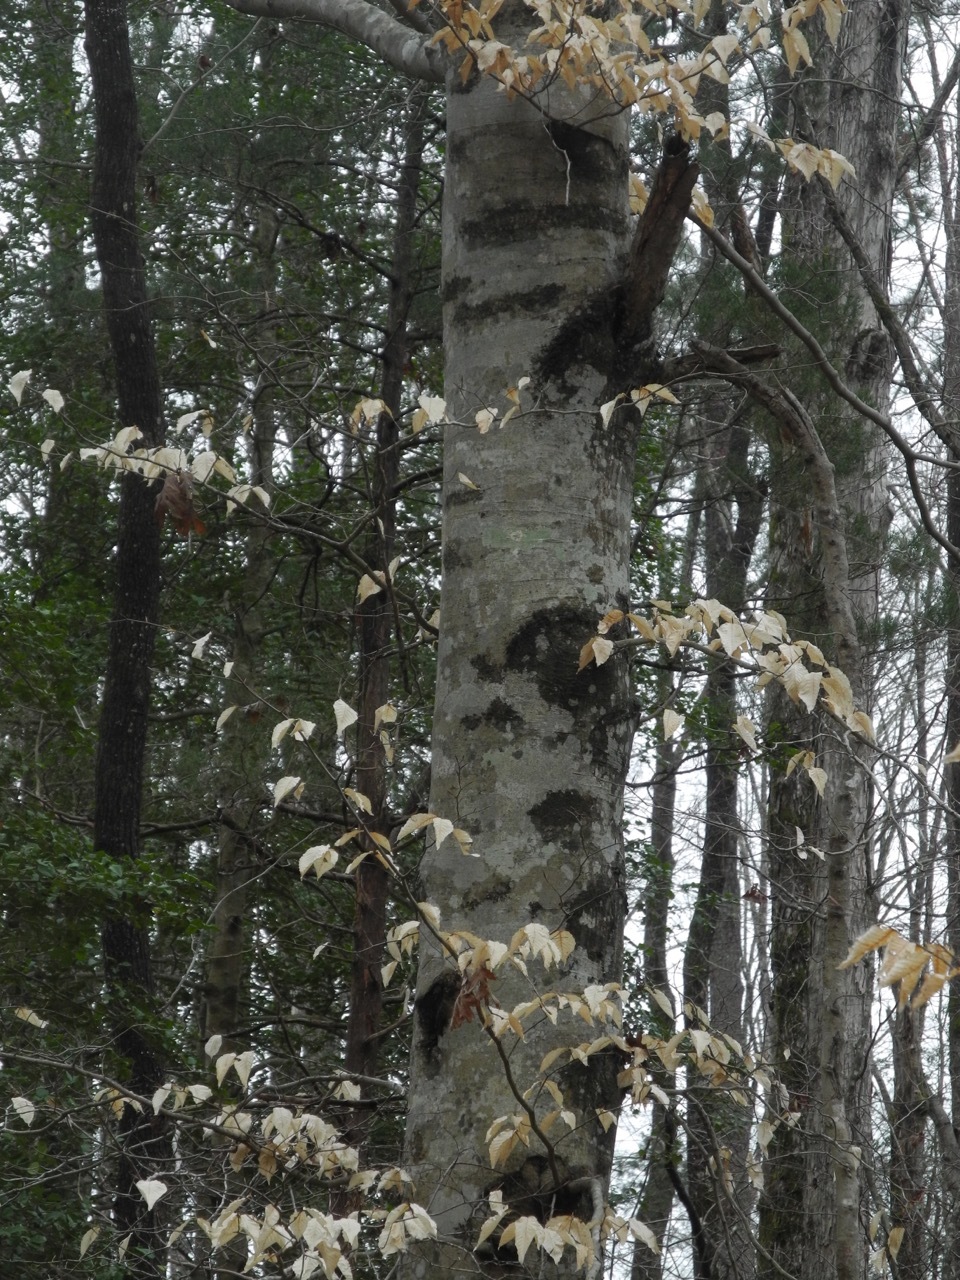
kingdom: Plantae
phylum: Tracheophyta
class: Magnoliopsida
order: Fagales
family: Fagaceae
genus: Fagus
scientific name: Fagus grandifolia
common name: American beech
